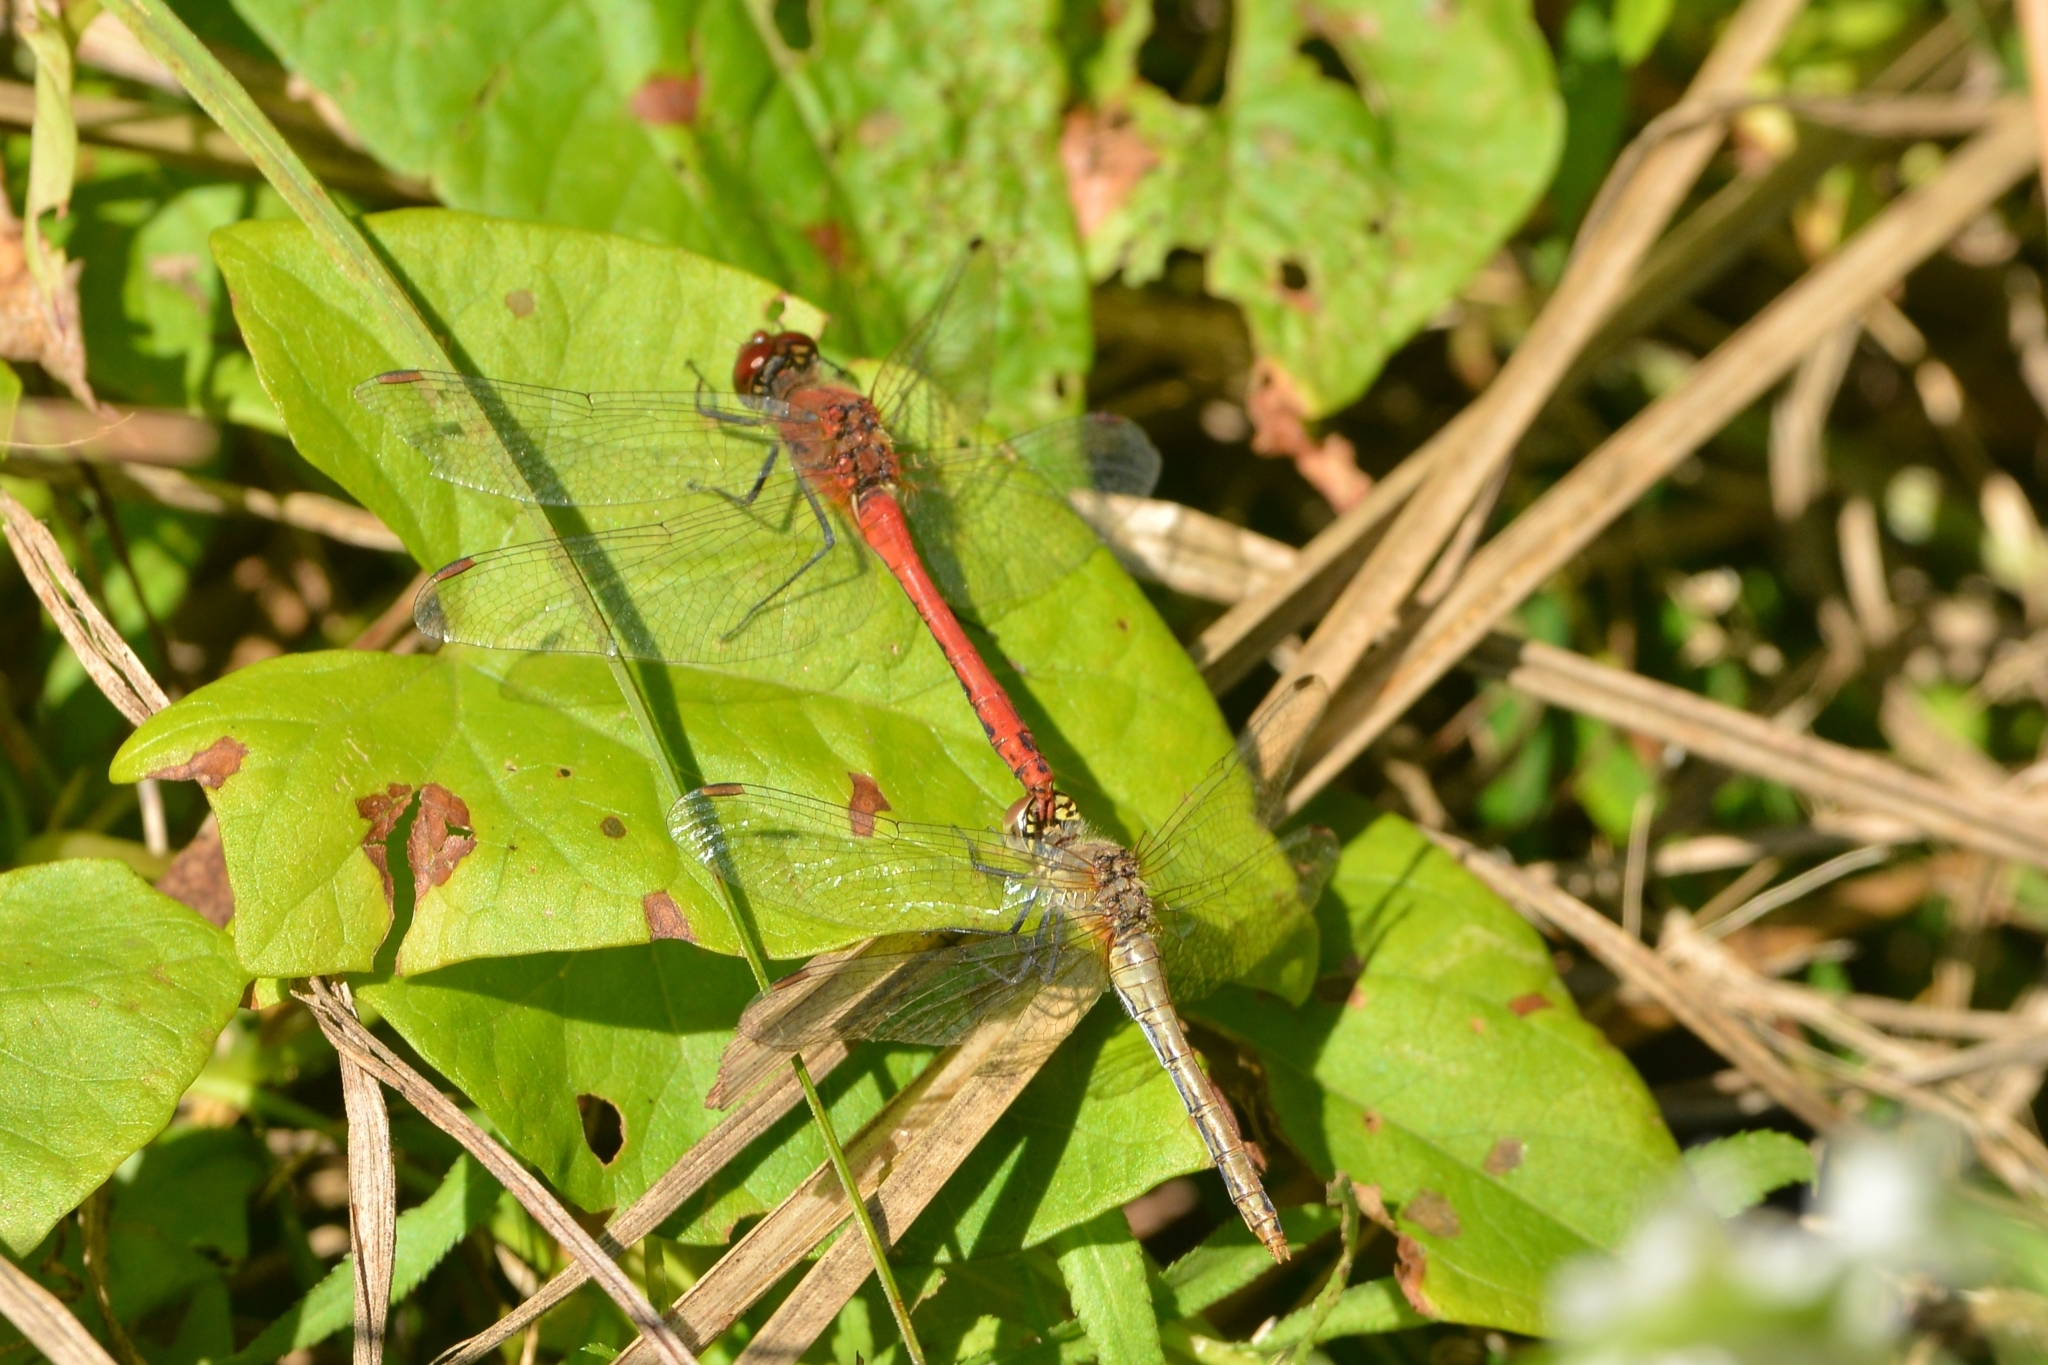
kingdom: Animalia
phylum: Arthropoda
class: Insecta
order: Odonata
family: Libellulidae
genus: Sympetrum
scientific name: Sympetrum sanguineum
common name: Ruddy darter
